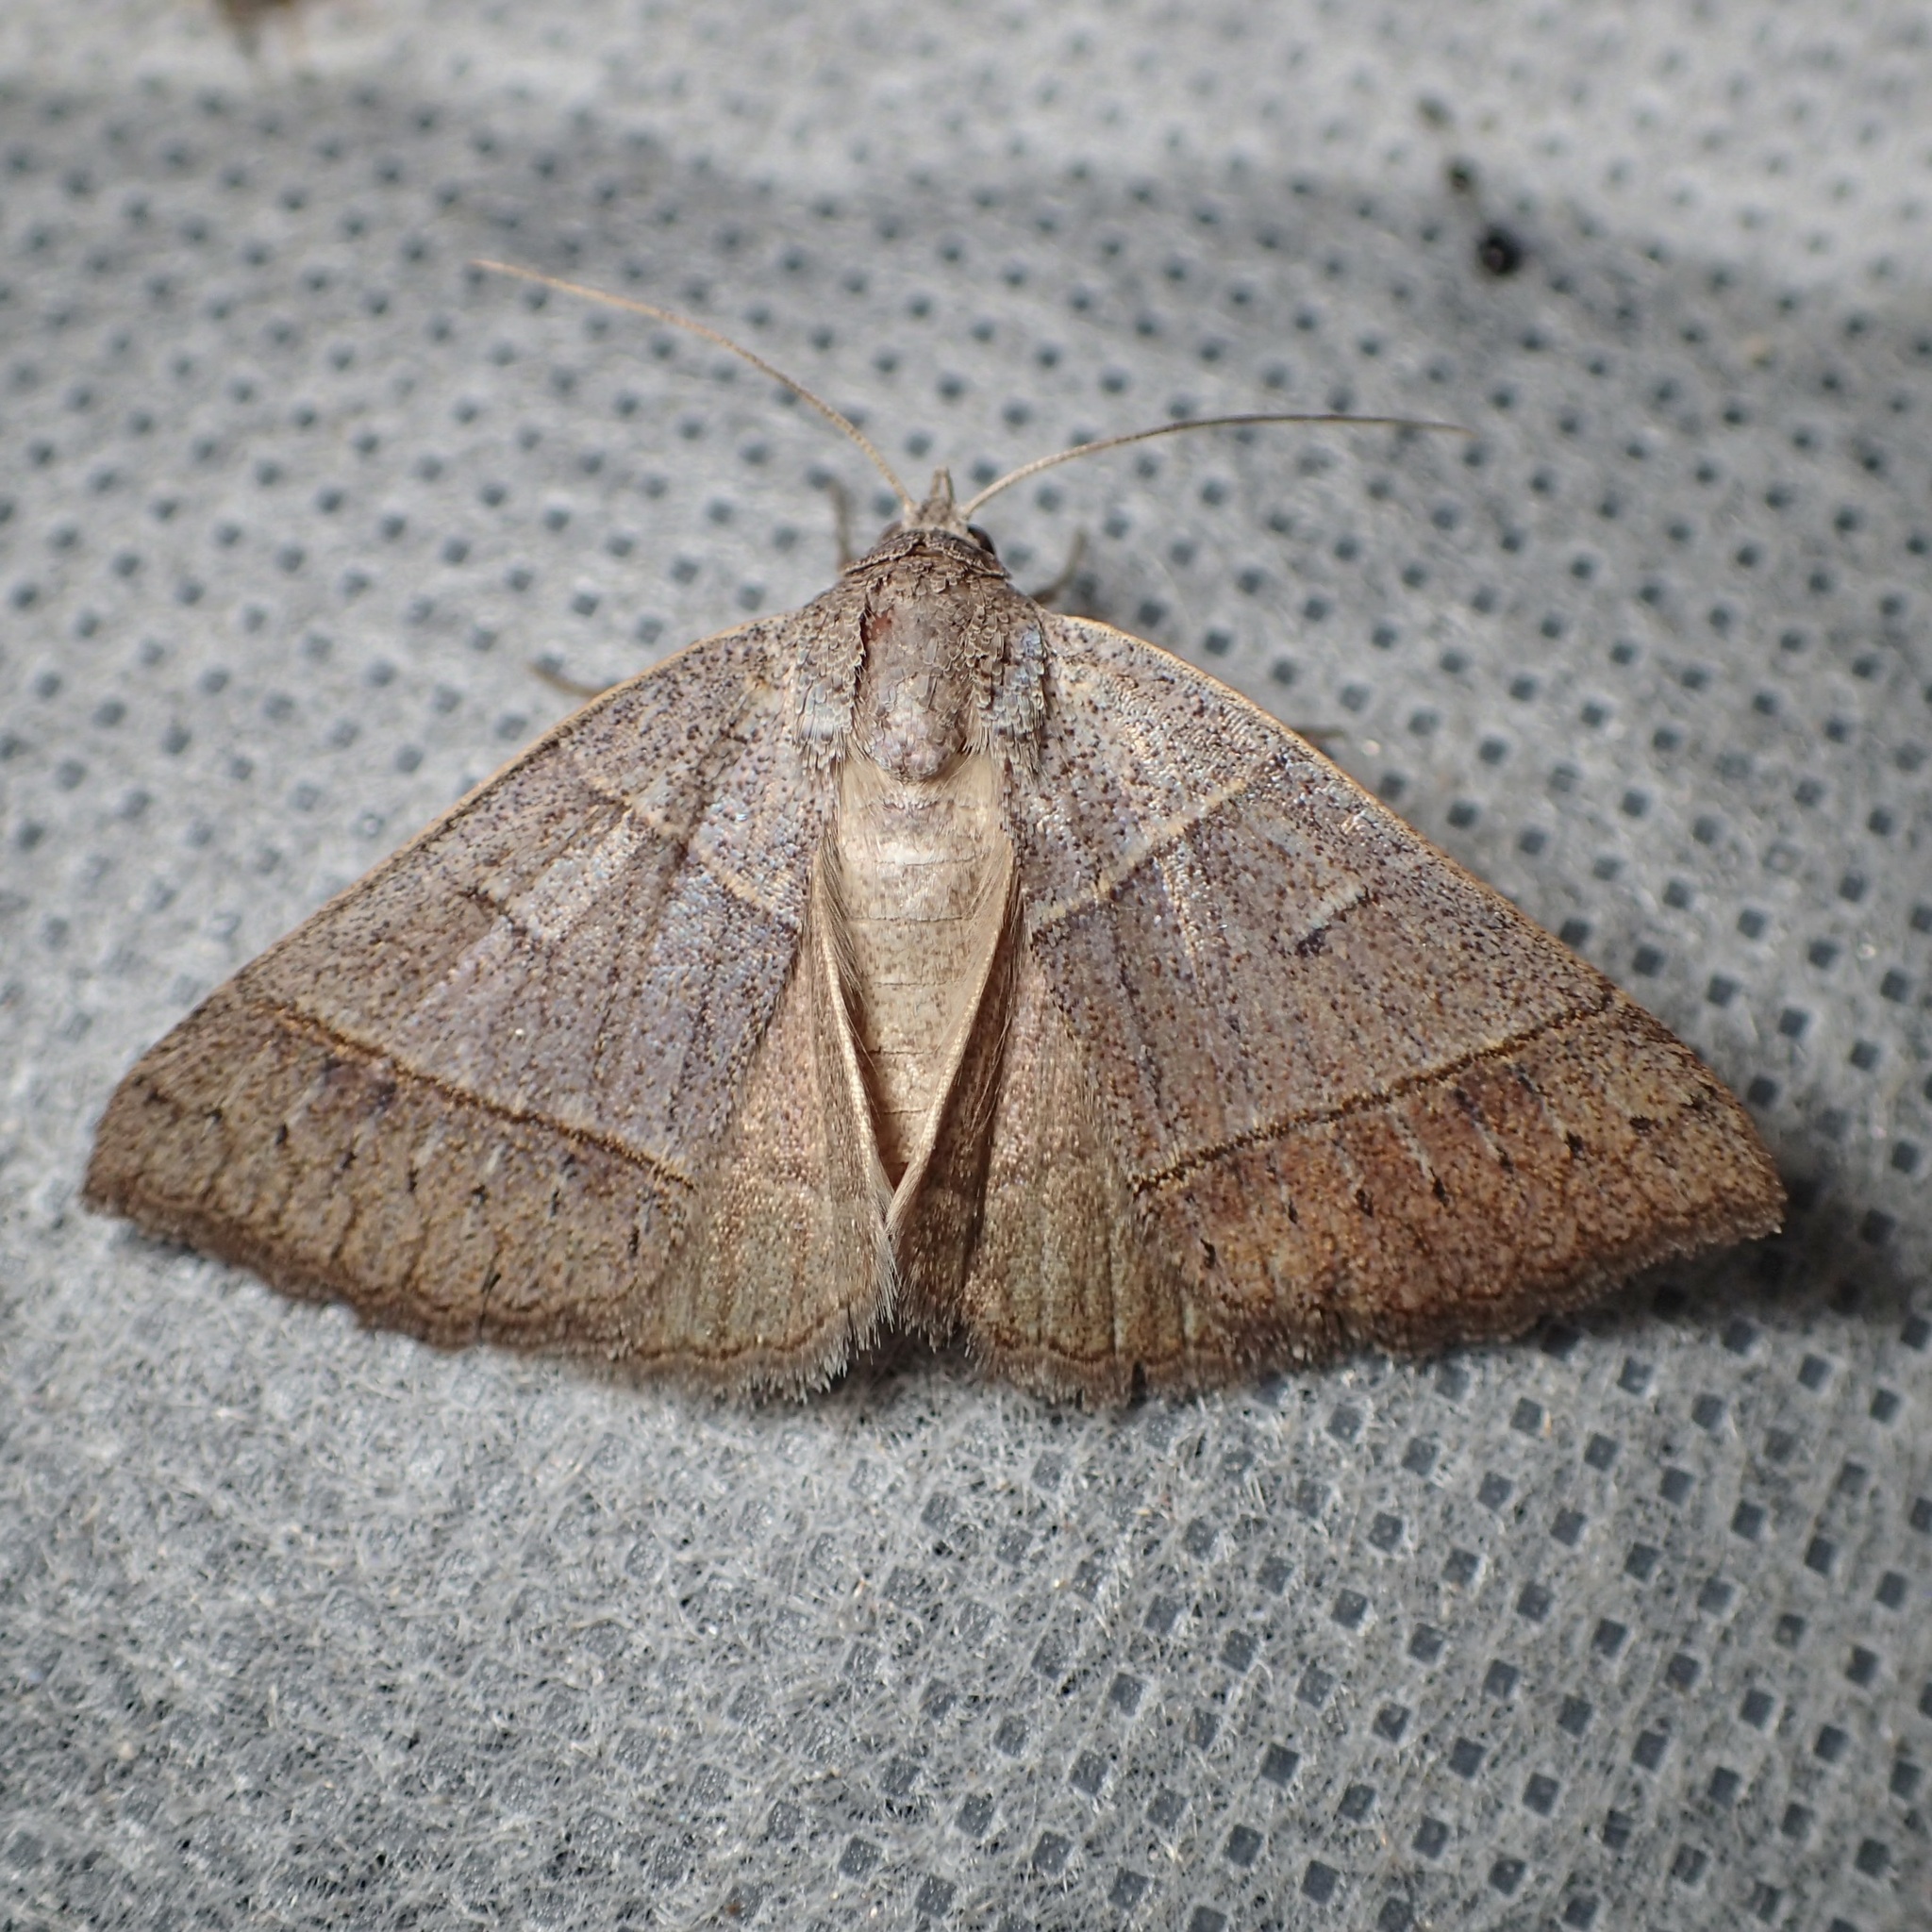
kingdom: Animalia
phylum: Arthropoda
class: Insecta
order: Lepidoptera
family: Erebidae
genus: Ptichodis
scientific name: Ptichodis ovalis
